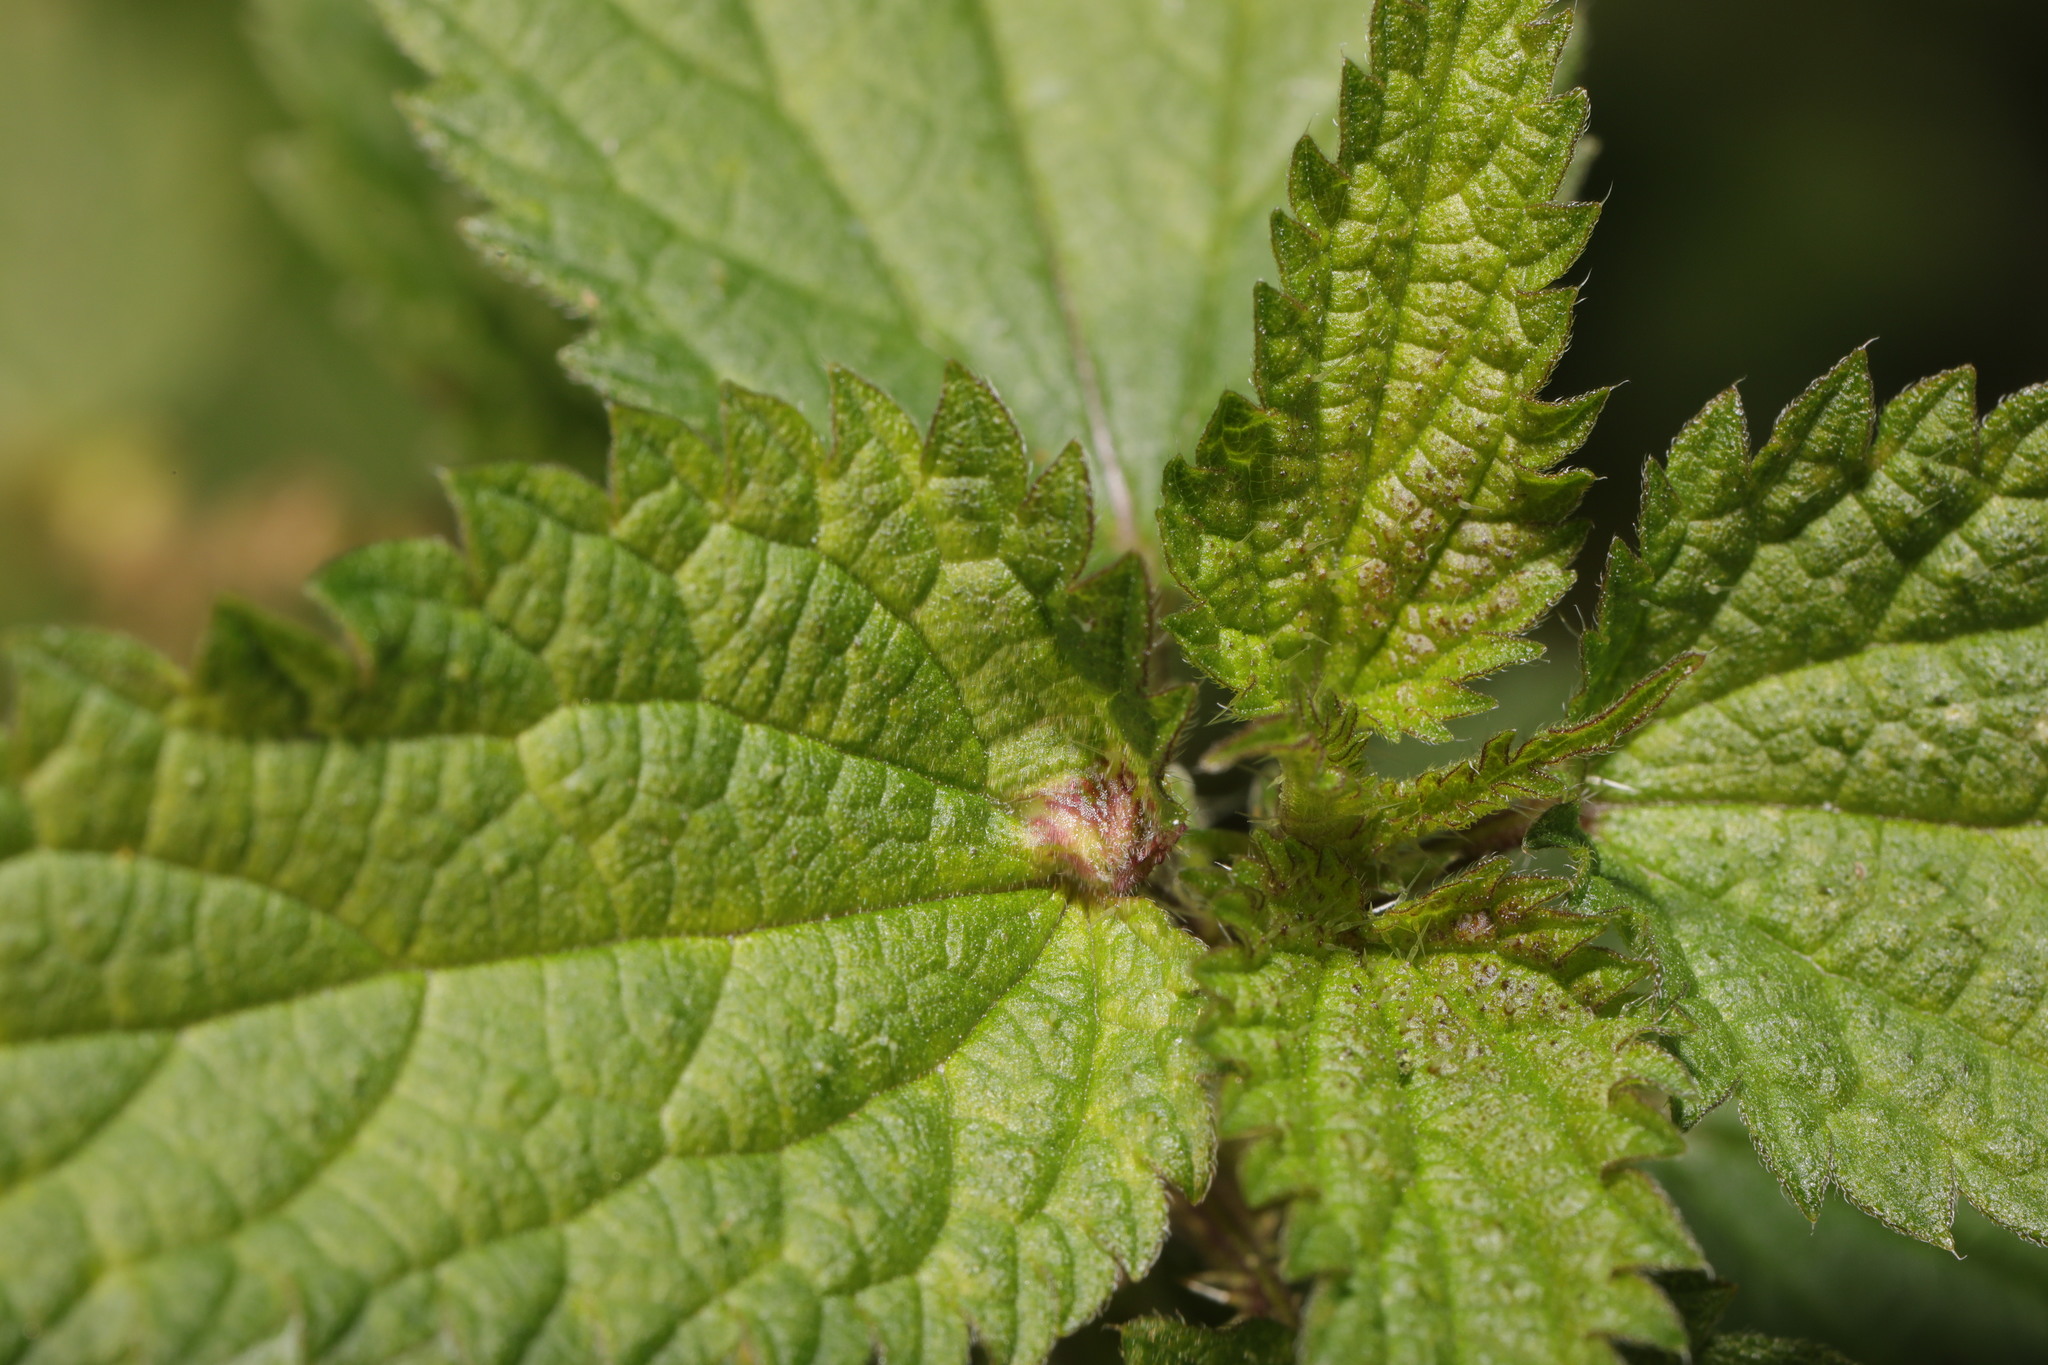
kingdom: Animalia
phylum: Arthropoda
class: Insecta
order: Diptera
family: Cecidomyiidae
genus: Dasineura
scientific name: Dasineura urticae
